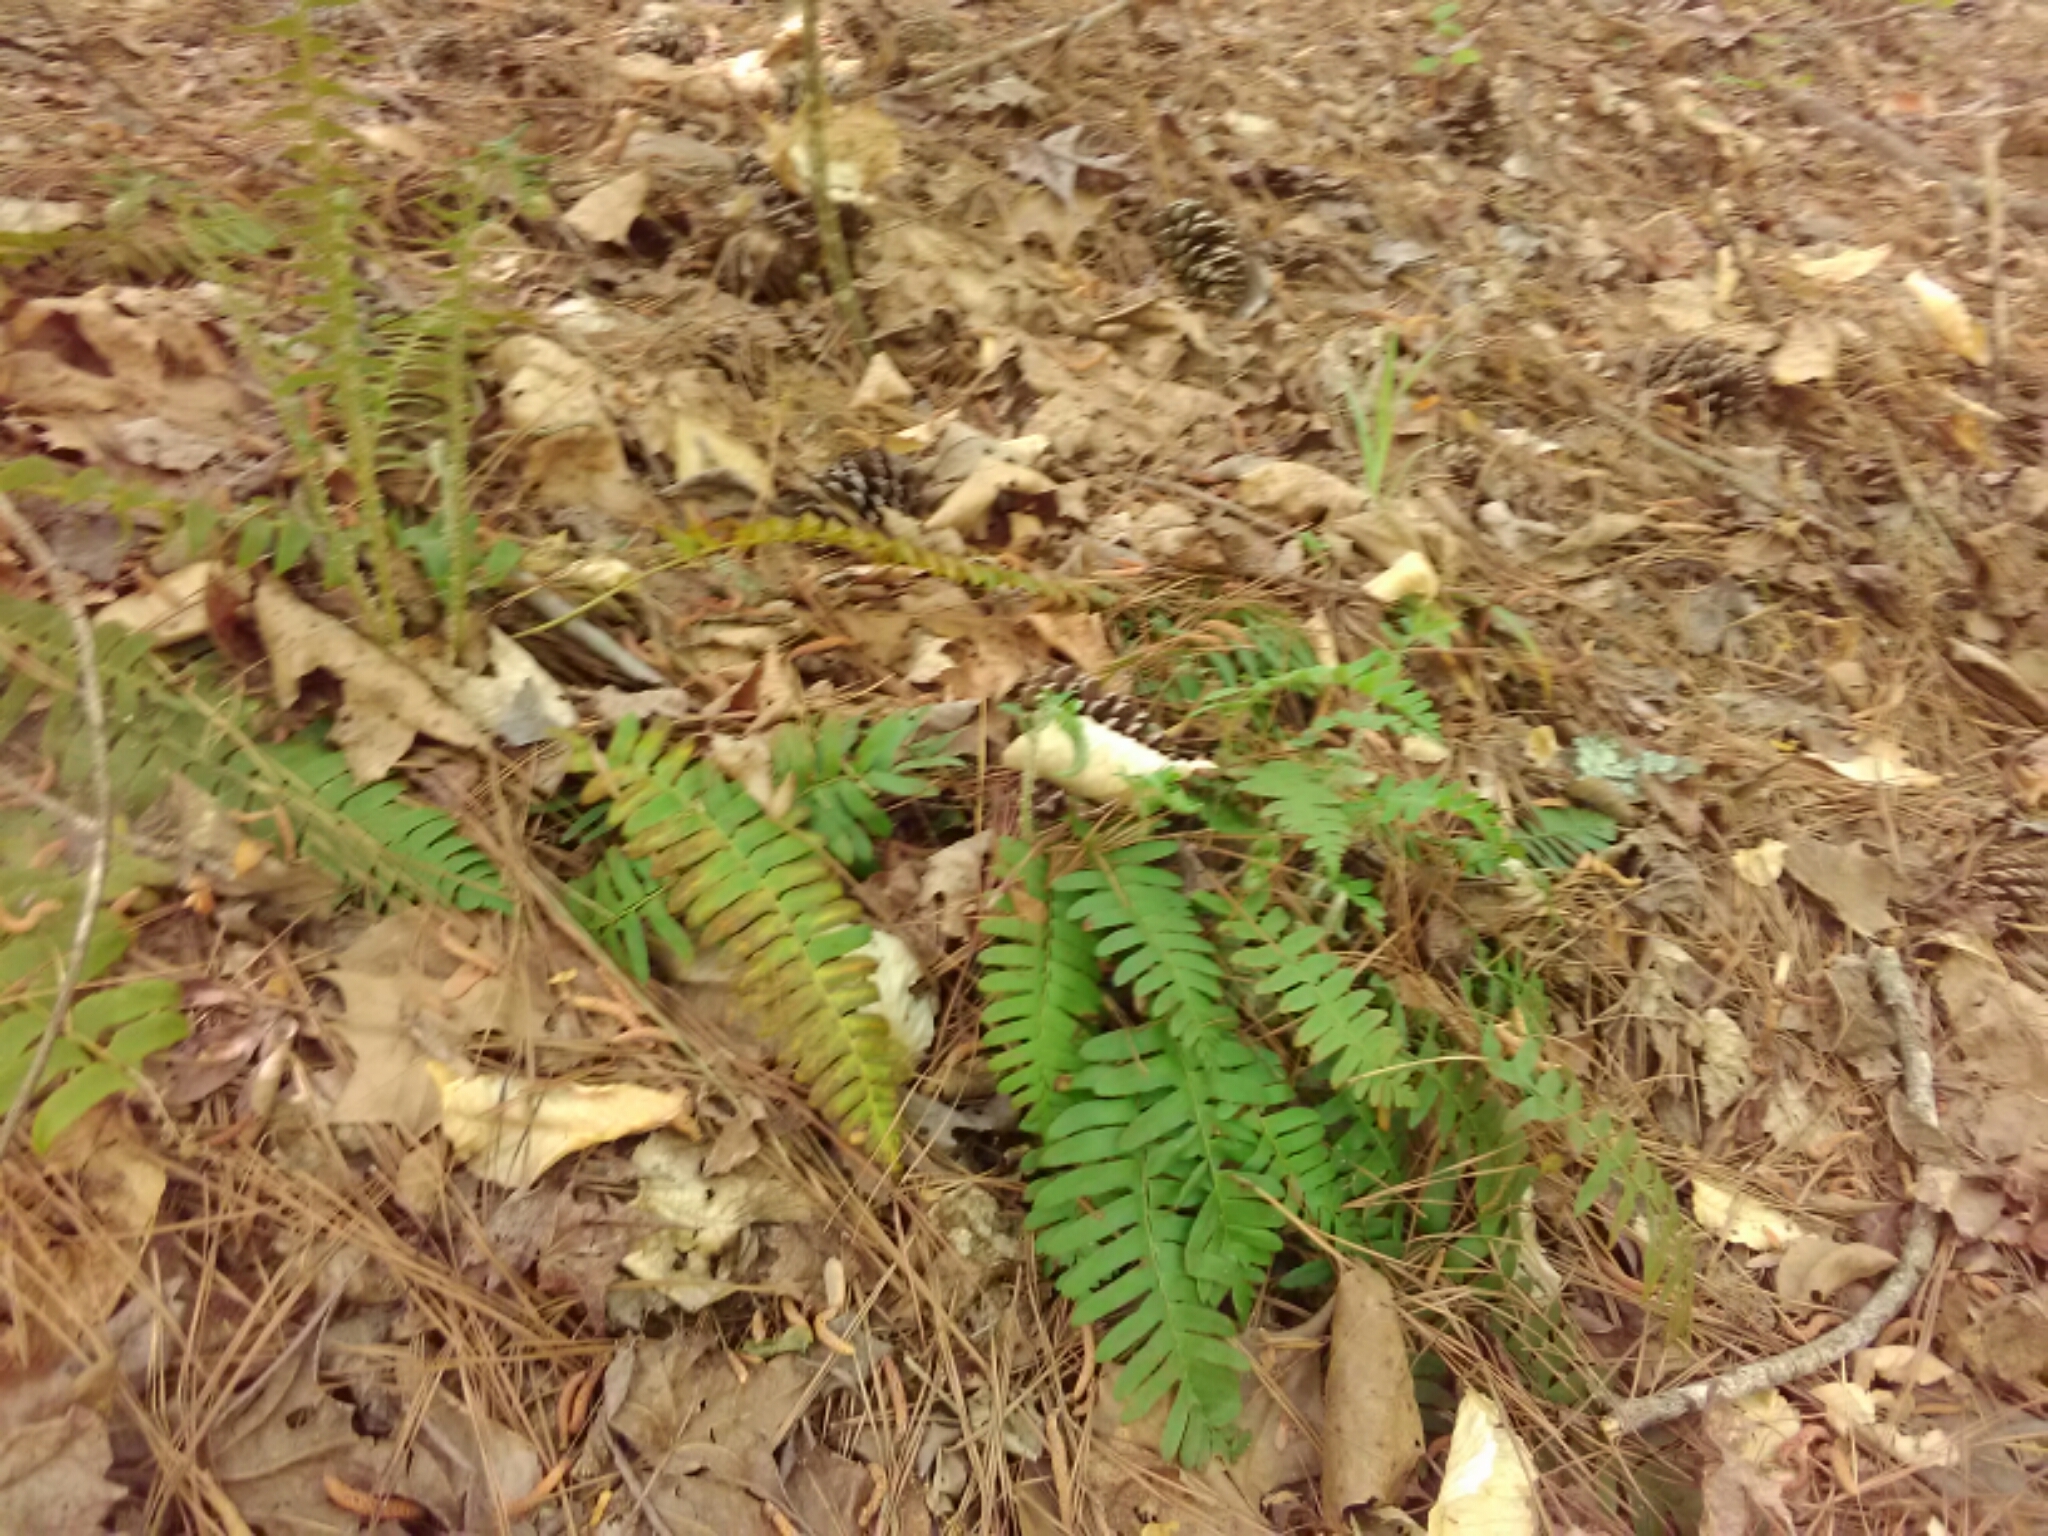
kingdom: Plantae
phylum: Tracheophyta
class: Polypodiopsida
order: Polypodiales
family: Dryopteridaceae
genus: Polystichum
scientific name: Polystichum acrostichoides
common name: Christmas fern
